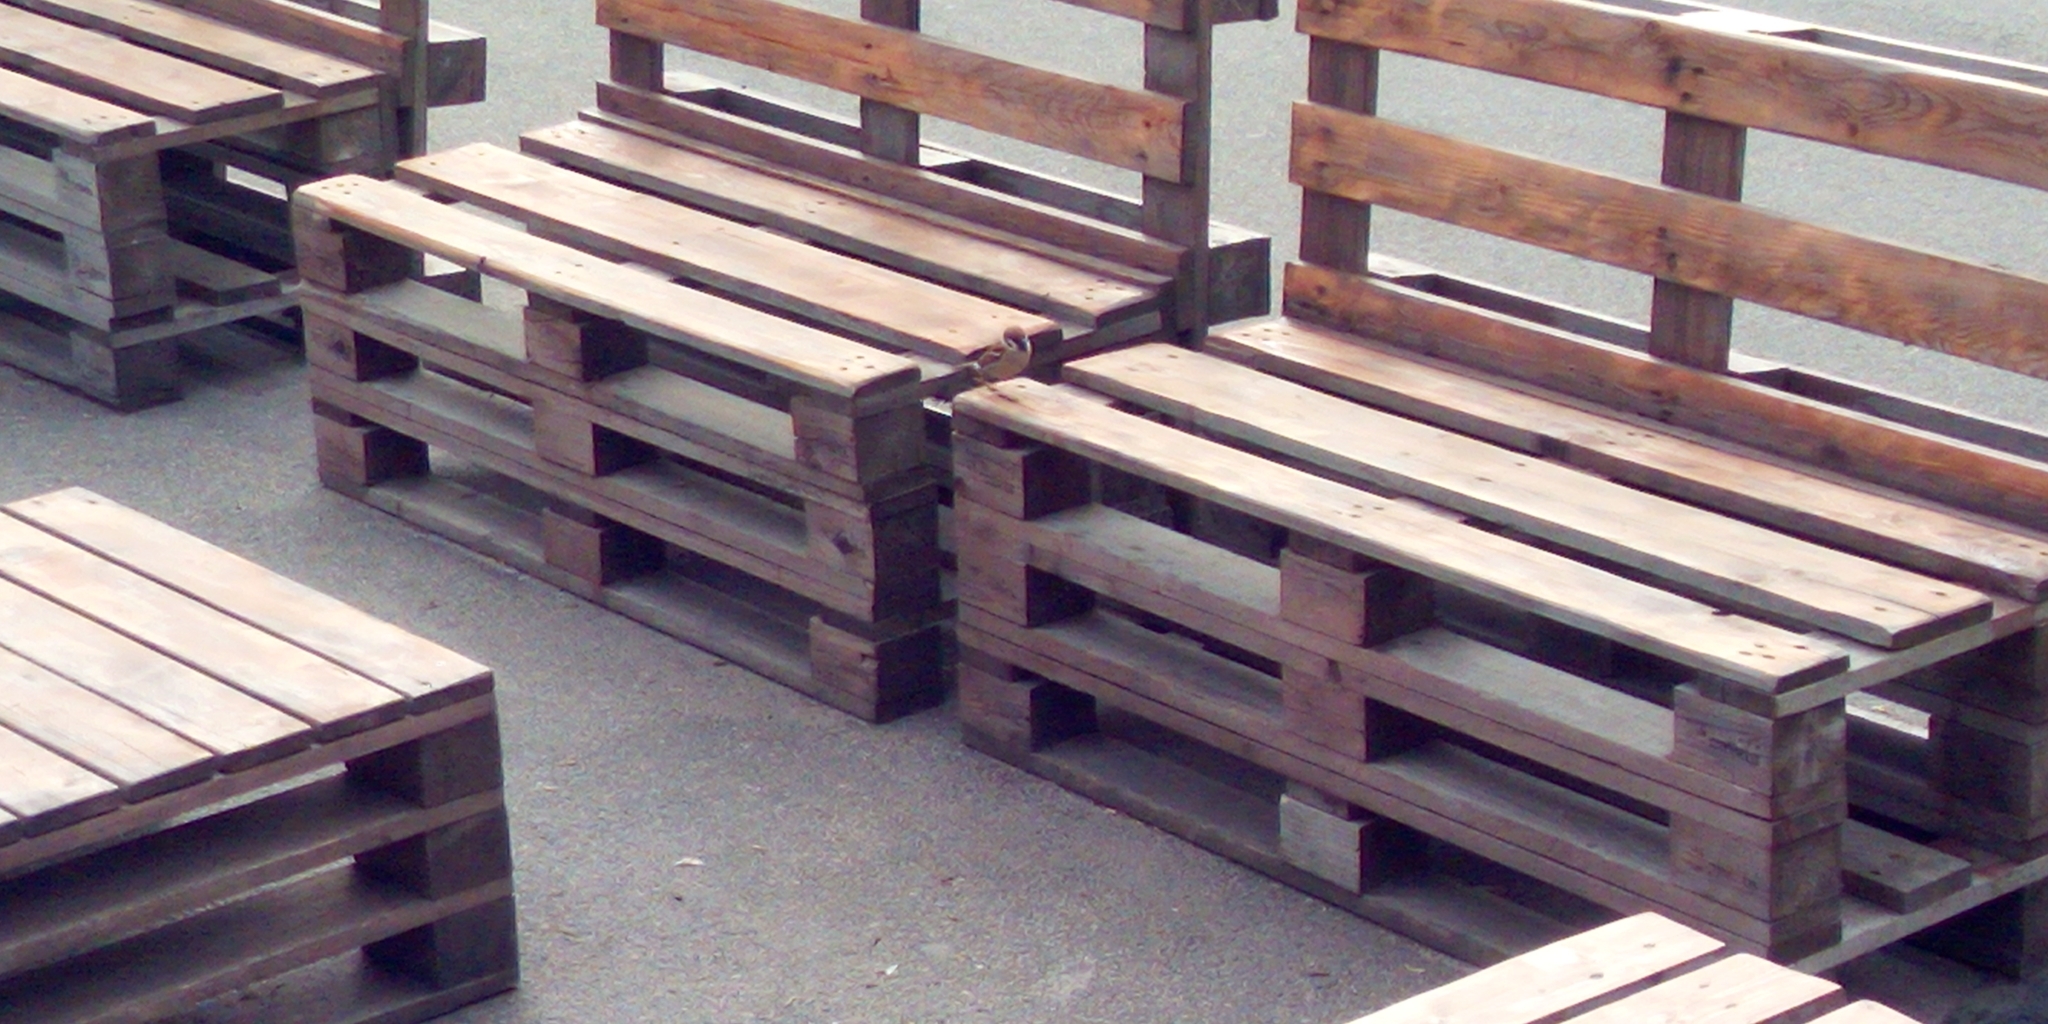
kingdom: Animalia
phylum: Chordata
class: Aves
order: Passeriformes
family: Passeridae
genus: Passer
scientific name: Passer montanus
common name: Eurasian tree sparrow
